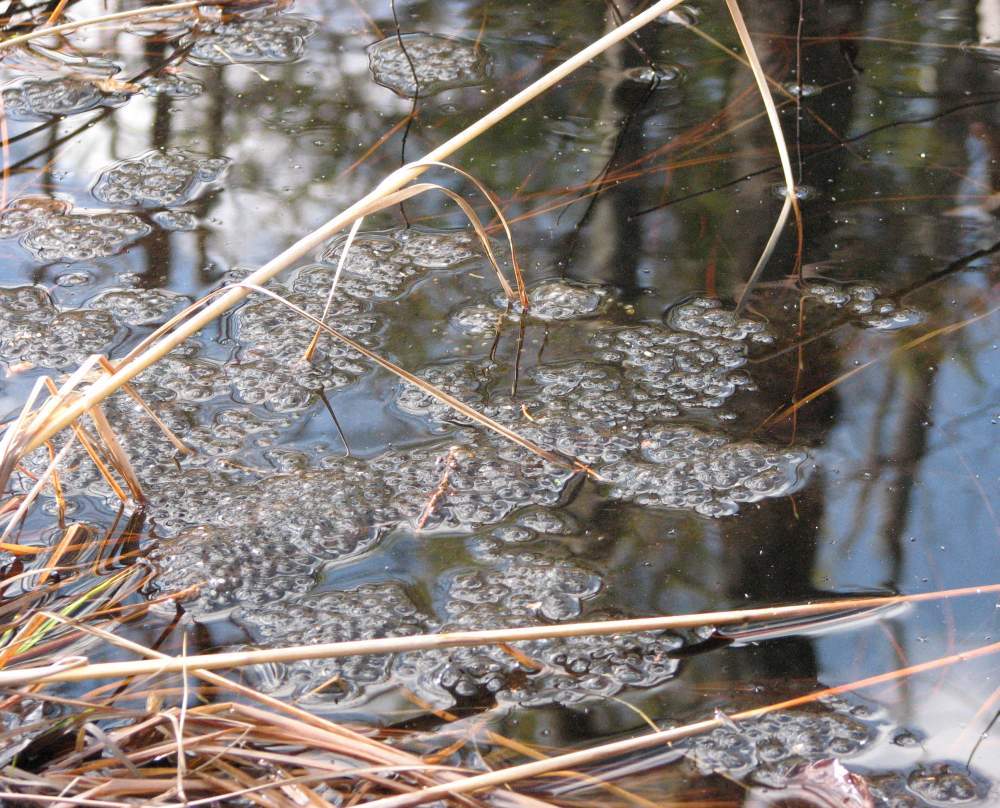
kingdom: Animalia
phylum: Chordata
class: Amphibia
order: Anura
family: Ranidae
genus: Lithobates
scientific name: Lithobates sylvaticus
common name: Wood frog
